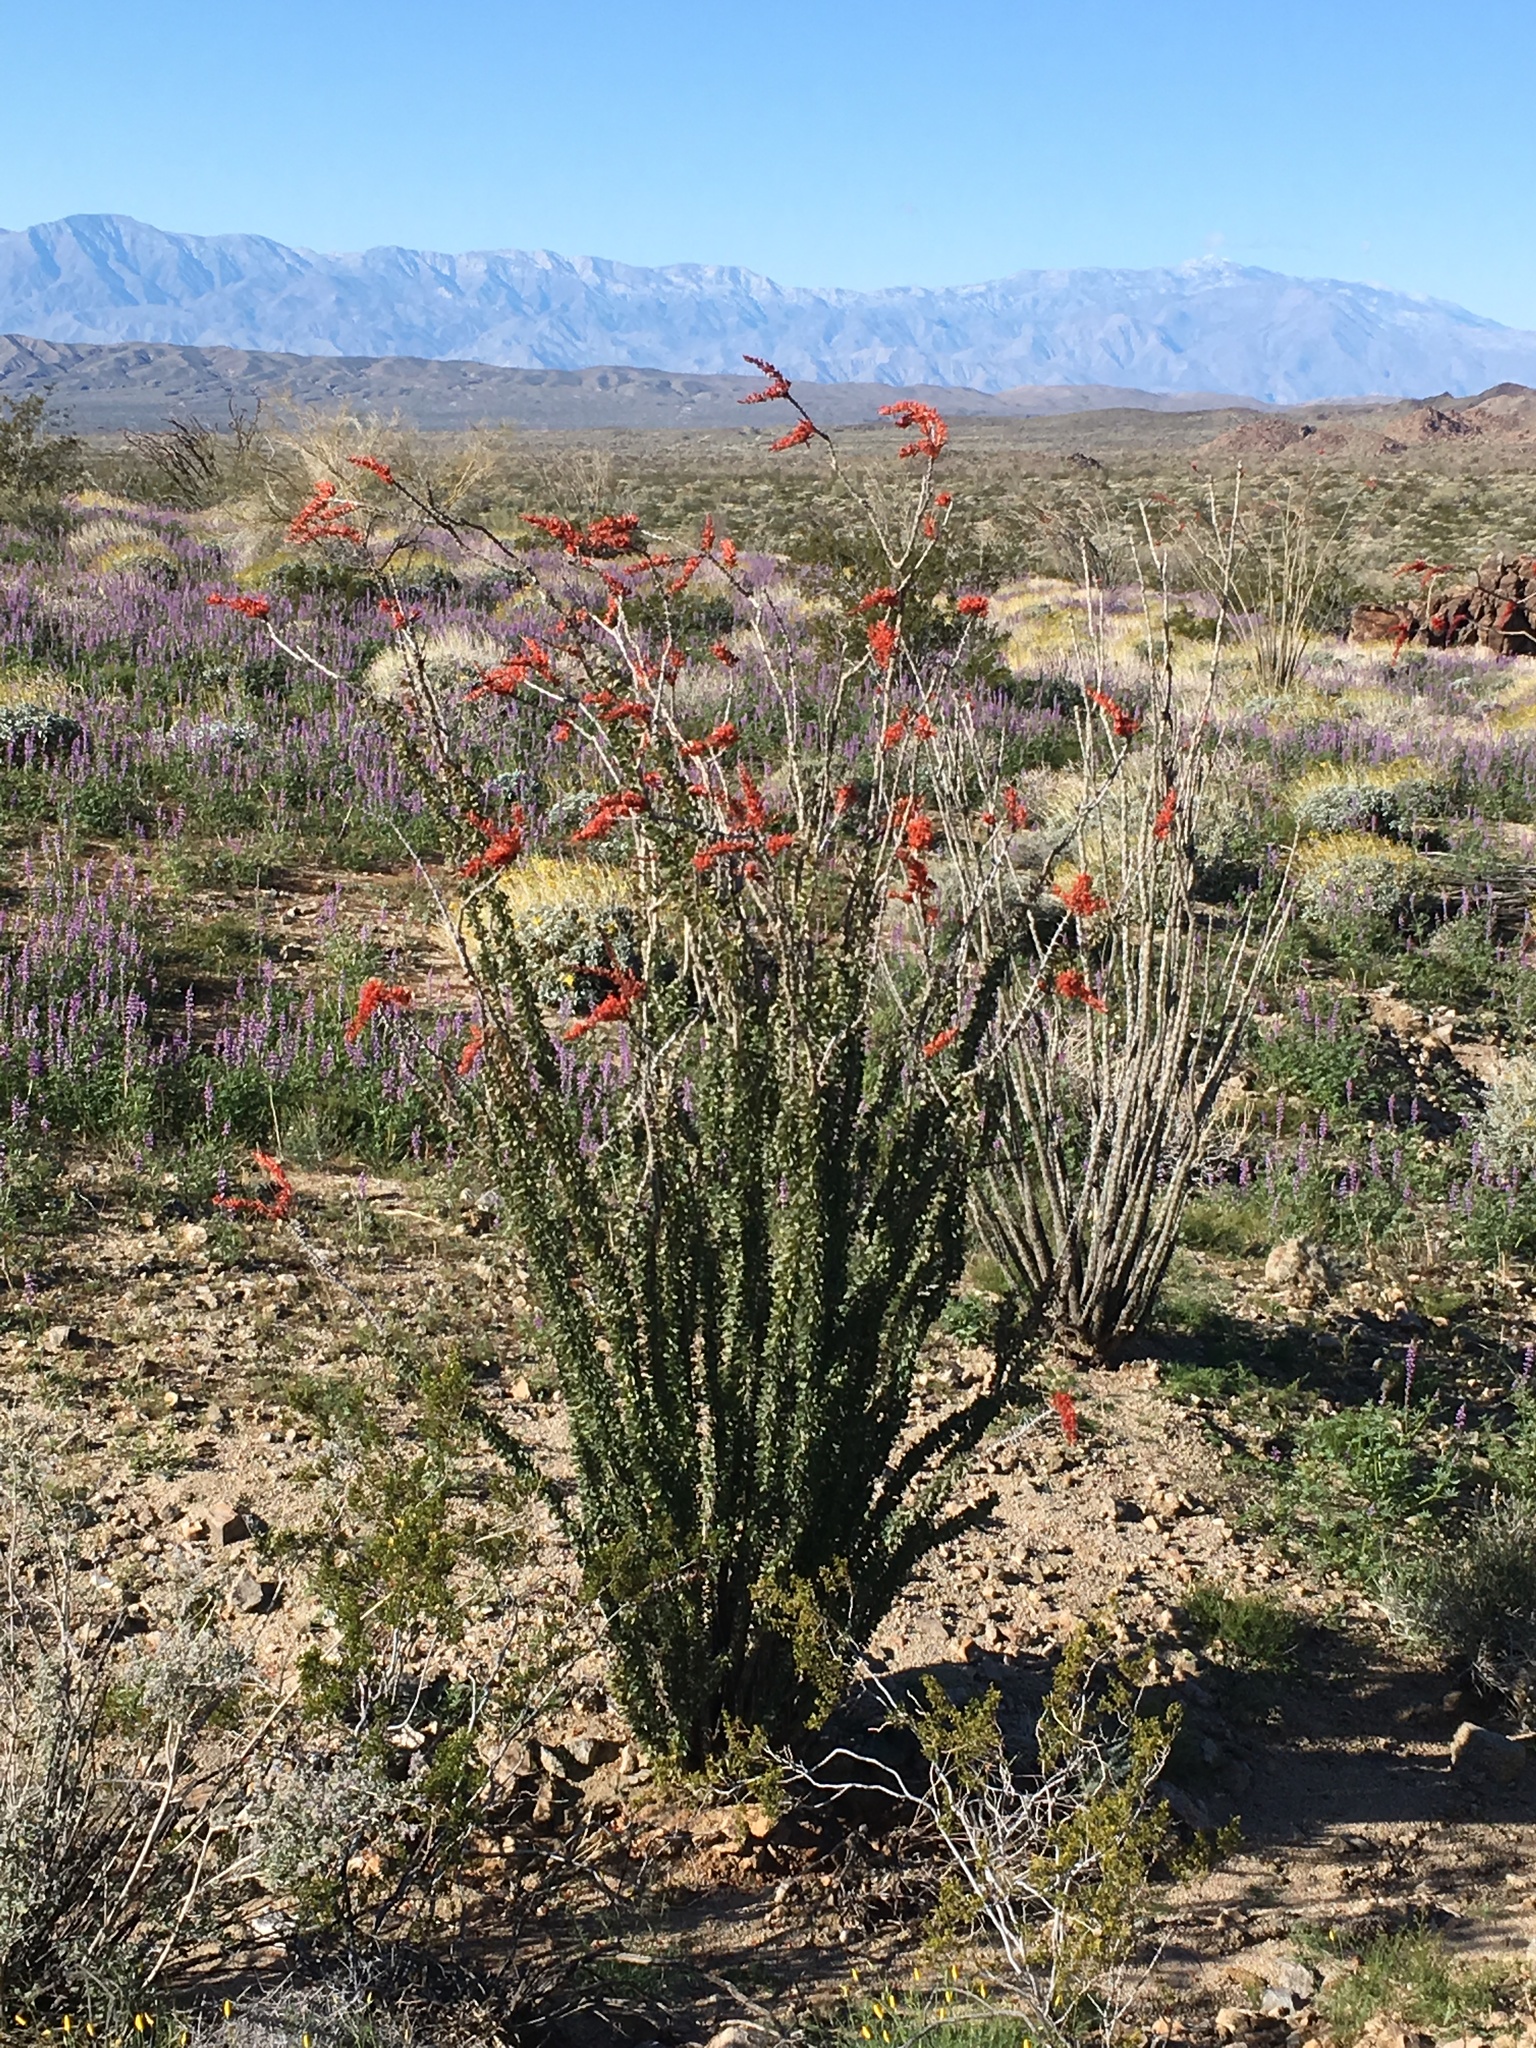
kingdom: Plantae
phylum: Tracheophyta
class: Magnoliopsida
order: Ericales
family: Fouquieriaceae
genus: Fouquieria
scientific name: Fouquieria splendens
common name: Vine-cactus
